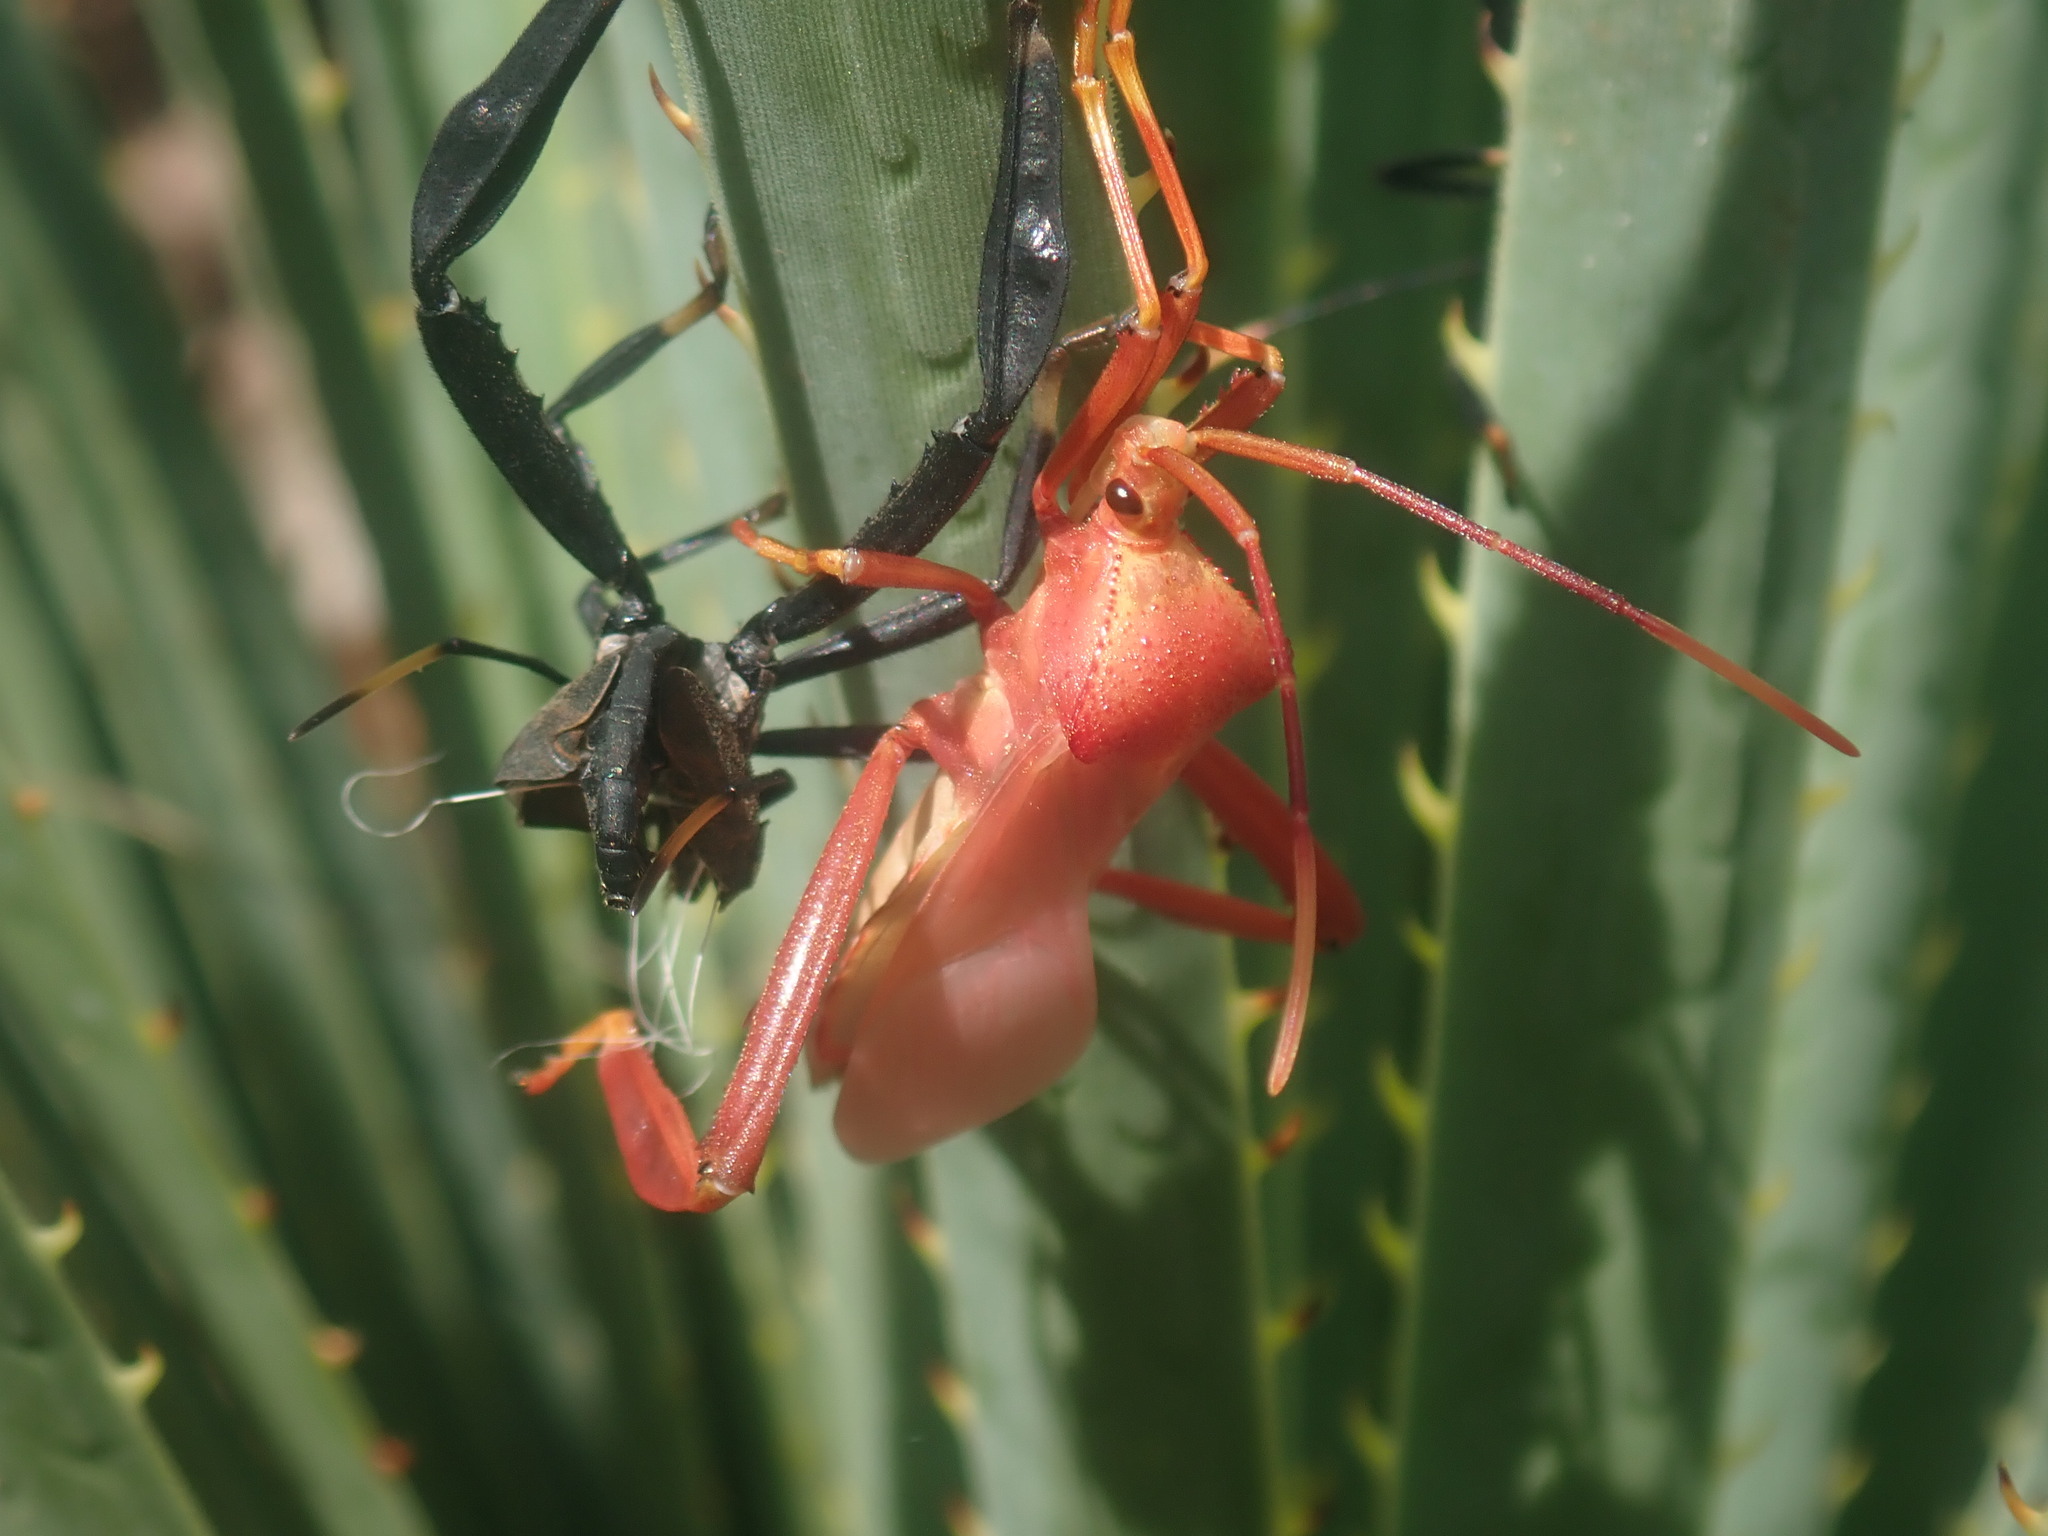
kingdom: Animalia
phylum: Arthropoda
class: Insecta
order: Hemiptera
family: Coreidae
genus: Acanthocephala
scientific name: Acanthocephala thomasi
